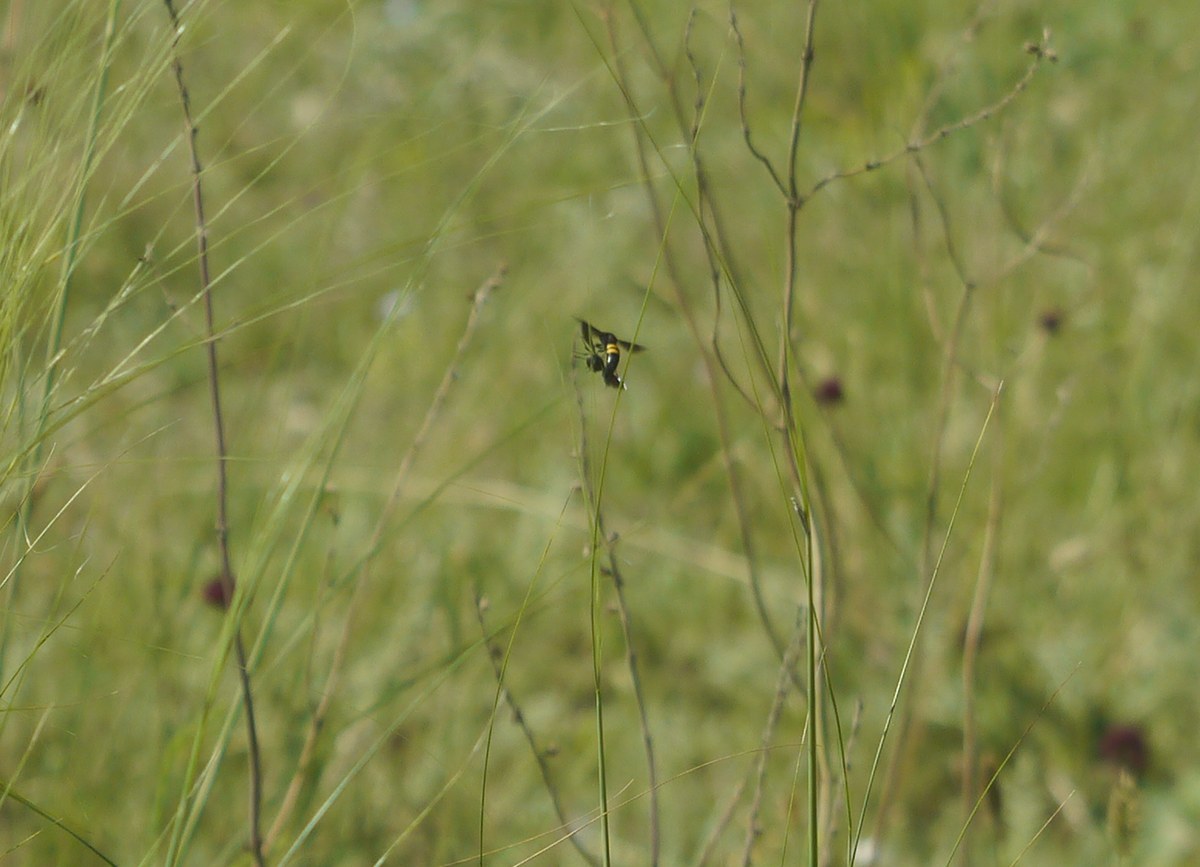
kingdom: Animalia
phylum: Arthropoda
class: Insecta
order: Hymenoptera
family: Crabronidae
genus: Stizoides
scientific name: Stizoides tridentatus
